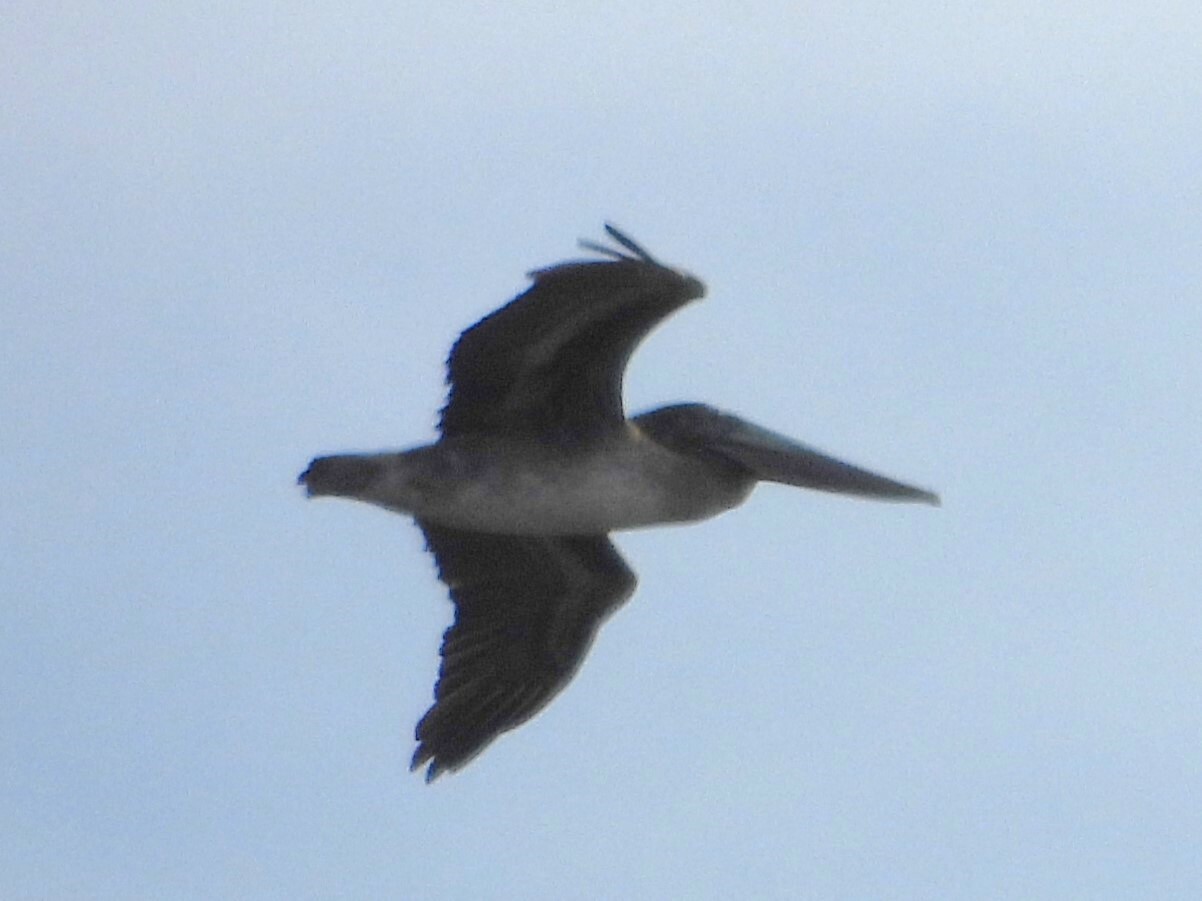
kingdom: Animalia
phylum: Chordata
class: Aves
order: Pelecaniformes
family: Pelecanidae
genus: Pelecanus
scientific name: Pelecanus occidentalis
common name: Brown pelican
